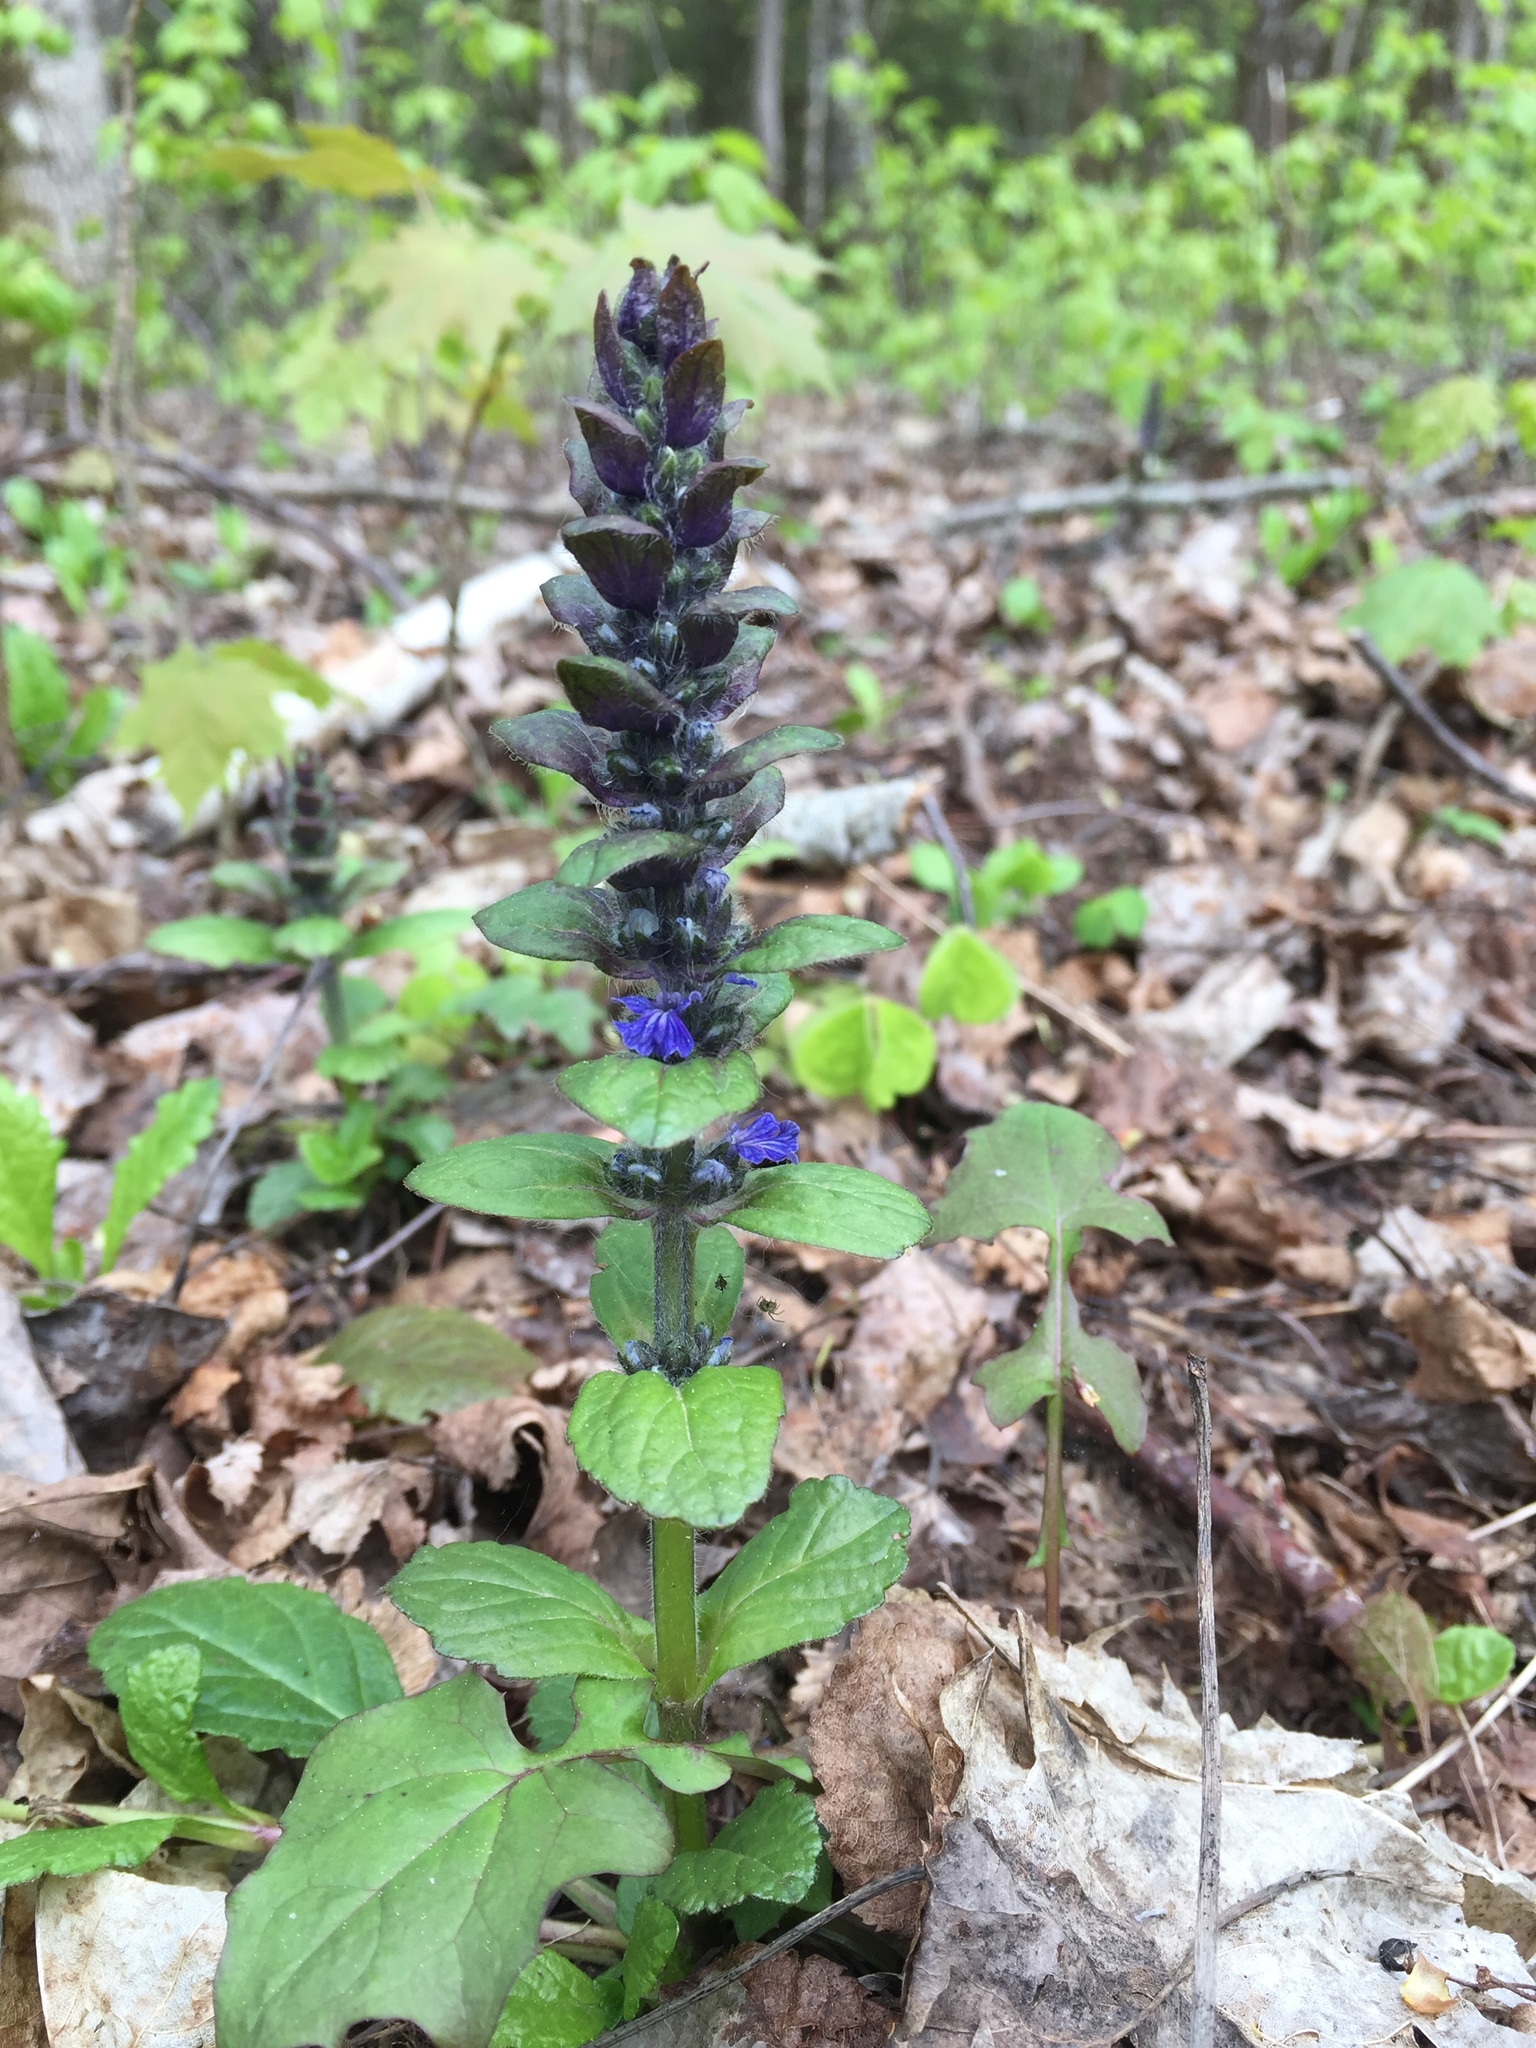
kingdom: Plantae
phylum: Tracheophyta
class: Magnoliopsida
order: Lamiales
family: Lamiaceae
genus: Ajuga
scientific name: Ajuga reptans
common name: Bugle
